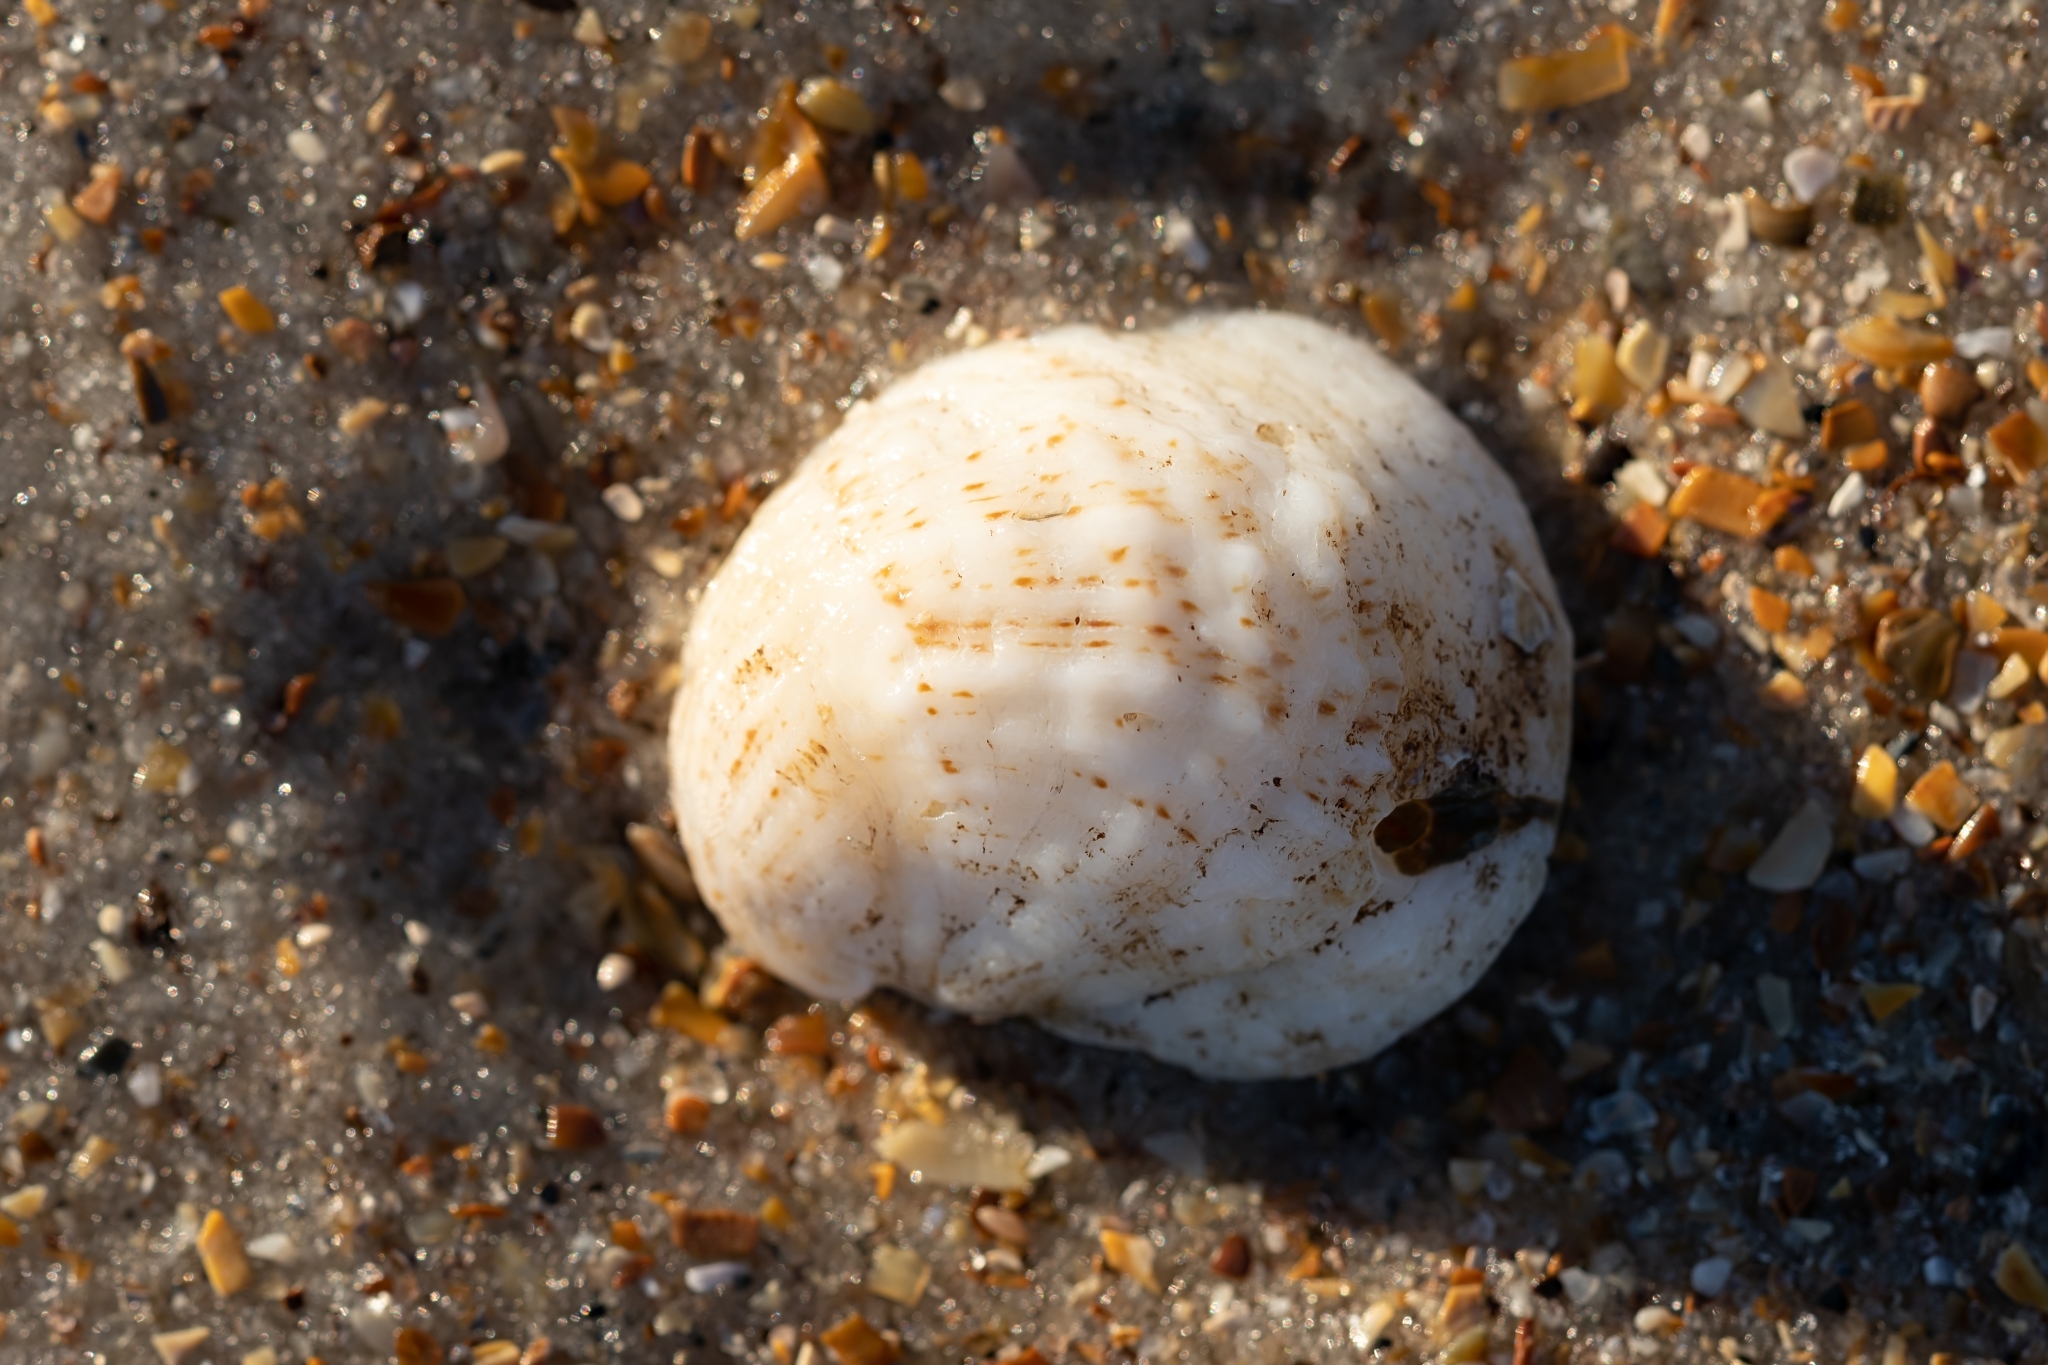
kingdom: Animalia
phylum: Mollusca
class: Gastropoda
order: Littorinimorpha
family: Calyptraeidae
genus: Bostrycapulus
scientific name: Bostrycapulus aculeatus
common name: Spiny slippersnail
